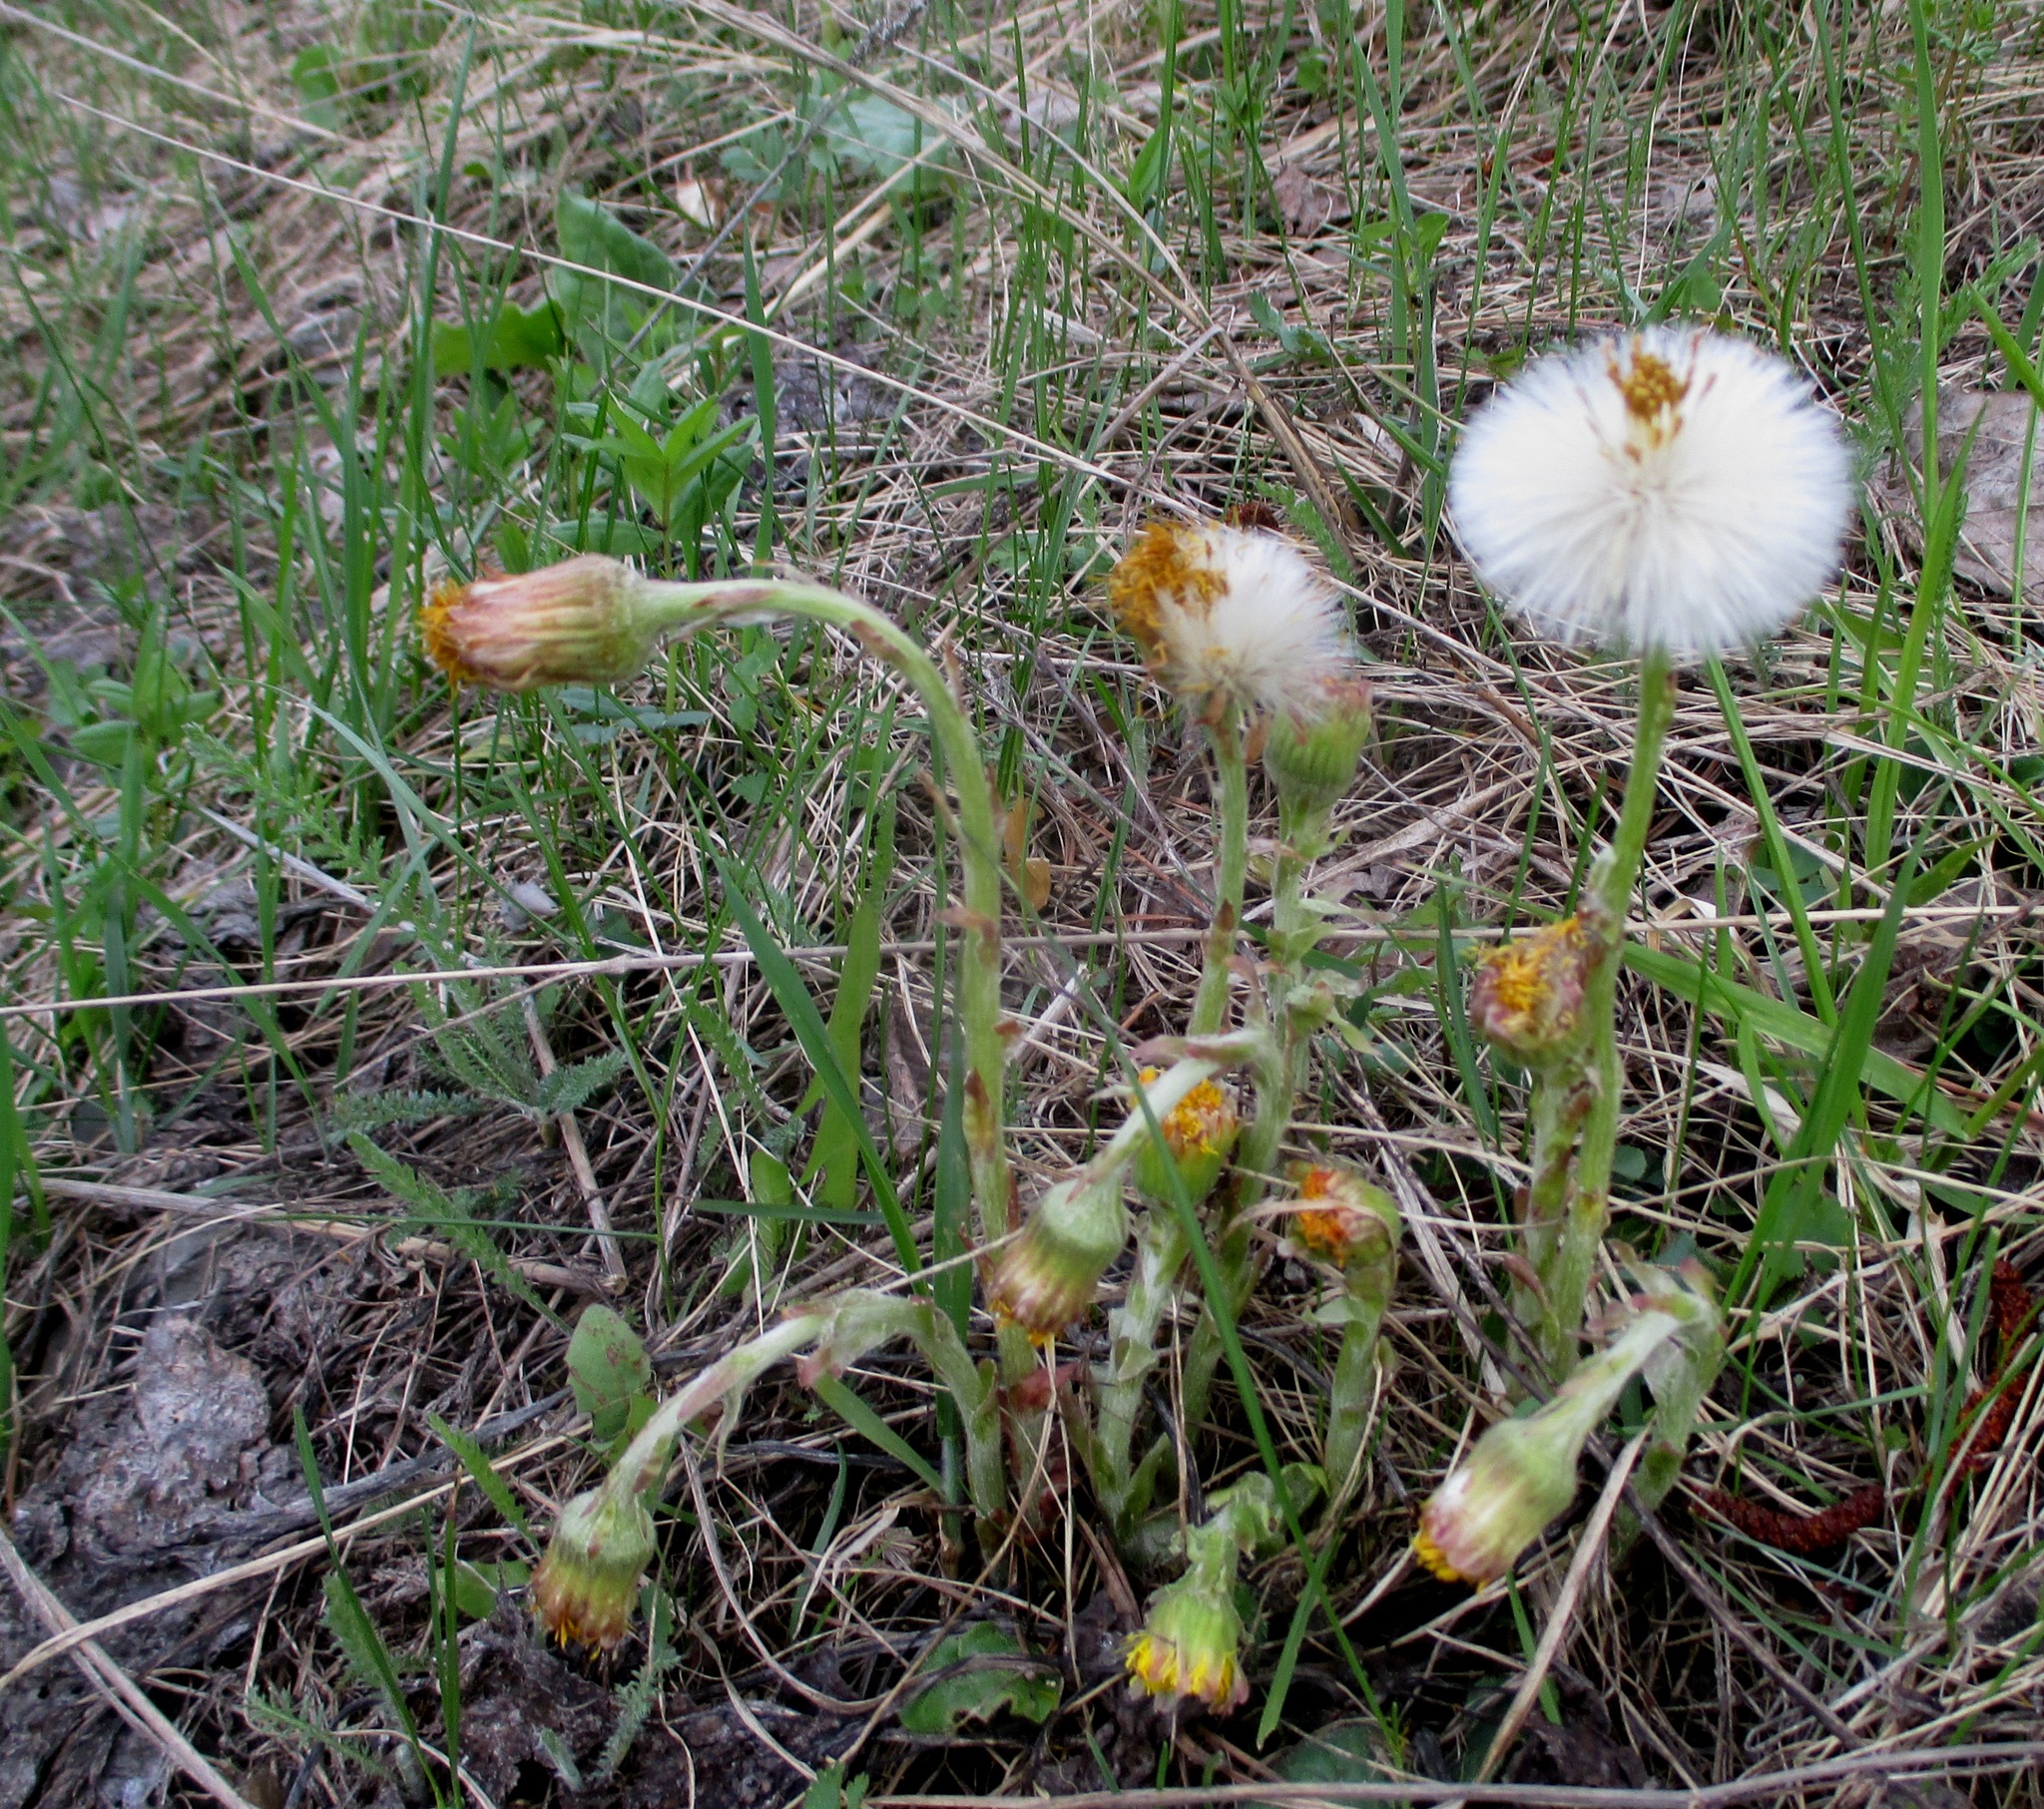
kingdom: Plantae
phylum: Tracheophyta
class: Magnoliopsida
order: Asterales
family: Asteraceae
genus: Tussilago
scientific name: Tussilago farfara
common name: Coltsfoot
